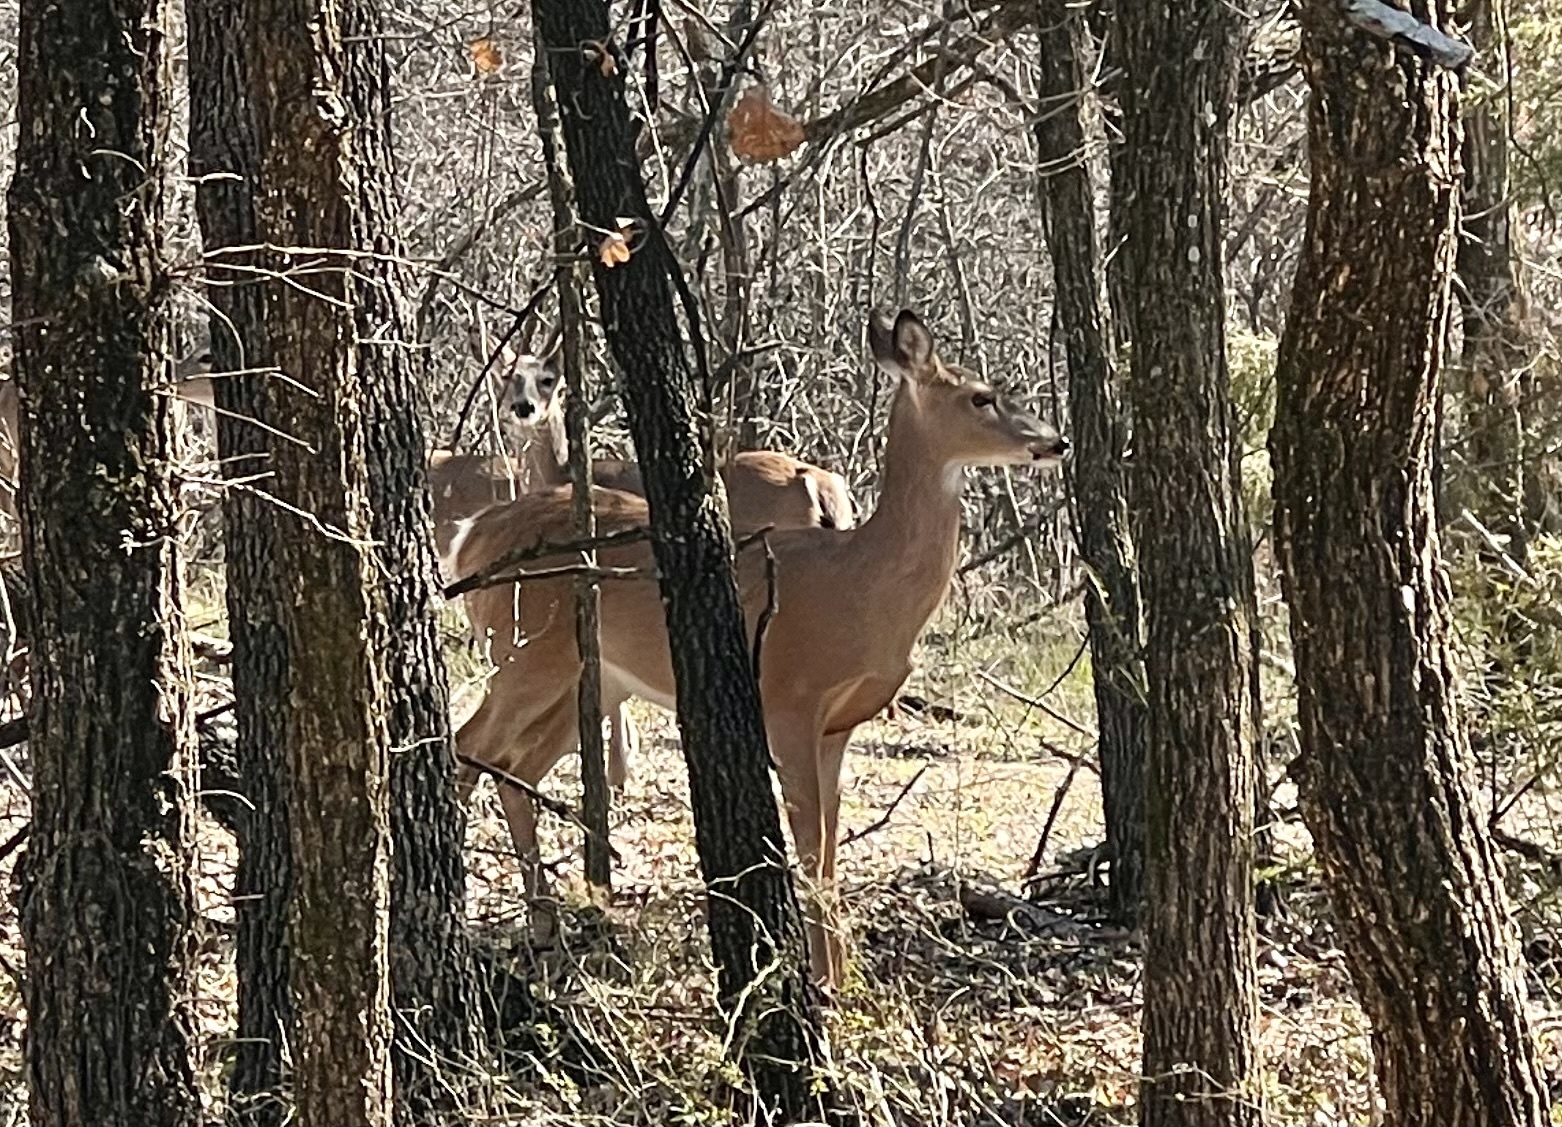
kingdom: Animalia
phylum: Chordata
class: Mammalia
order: Artiodactyla
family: Cervidae
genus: Odocoileus
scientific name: Odocoileus virginianus
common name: White-tailed deer
